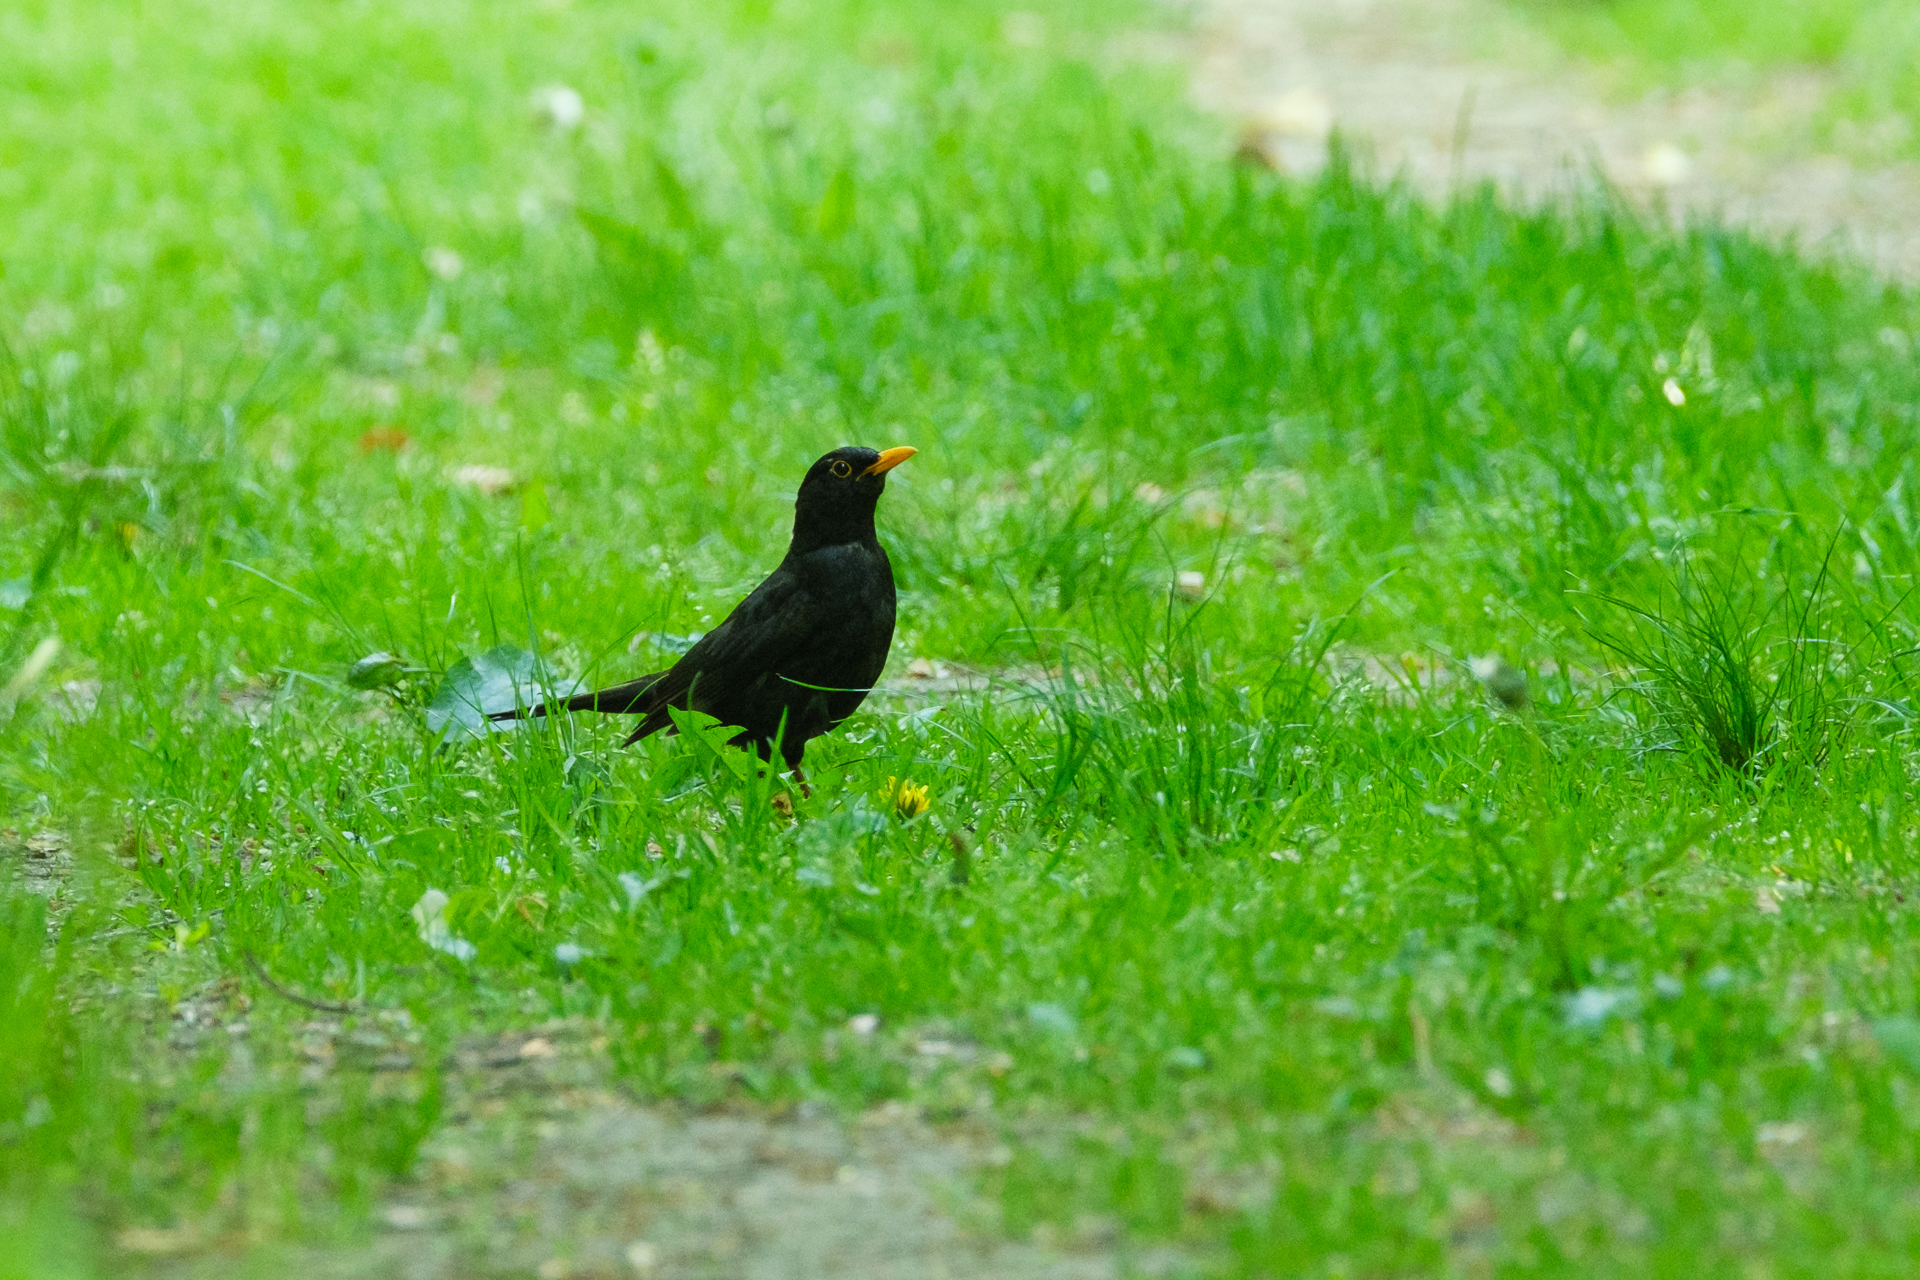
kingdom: Animalia
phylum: Chordata
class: Aves
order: Passeriformes
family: Turdidae
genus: Turdus
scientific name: Turdus merula
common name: Common blackbird
